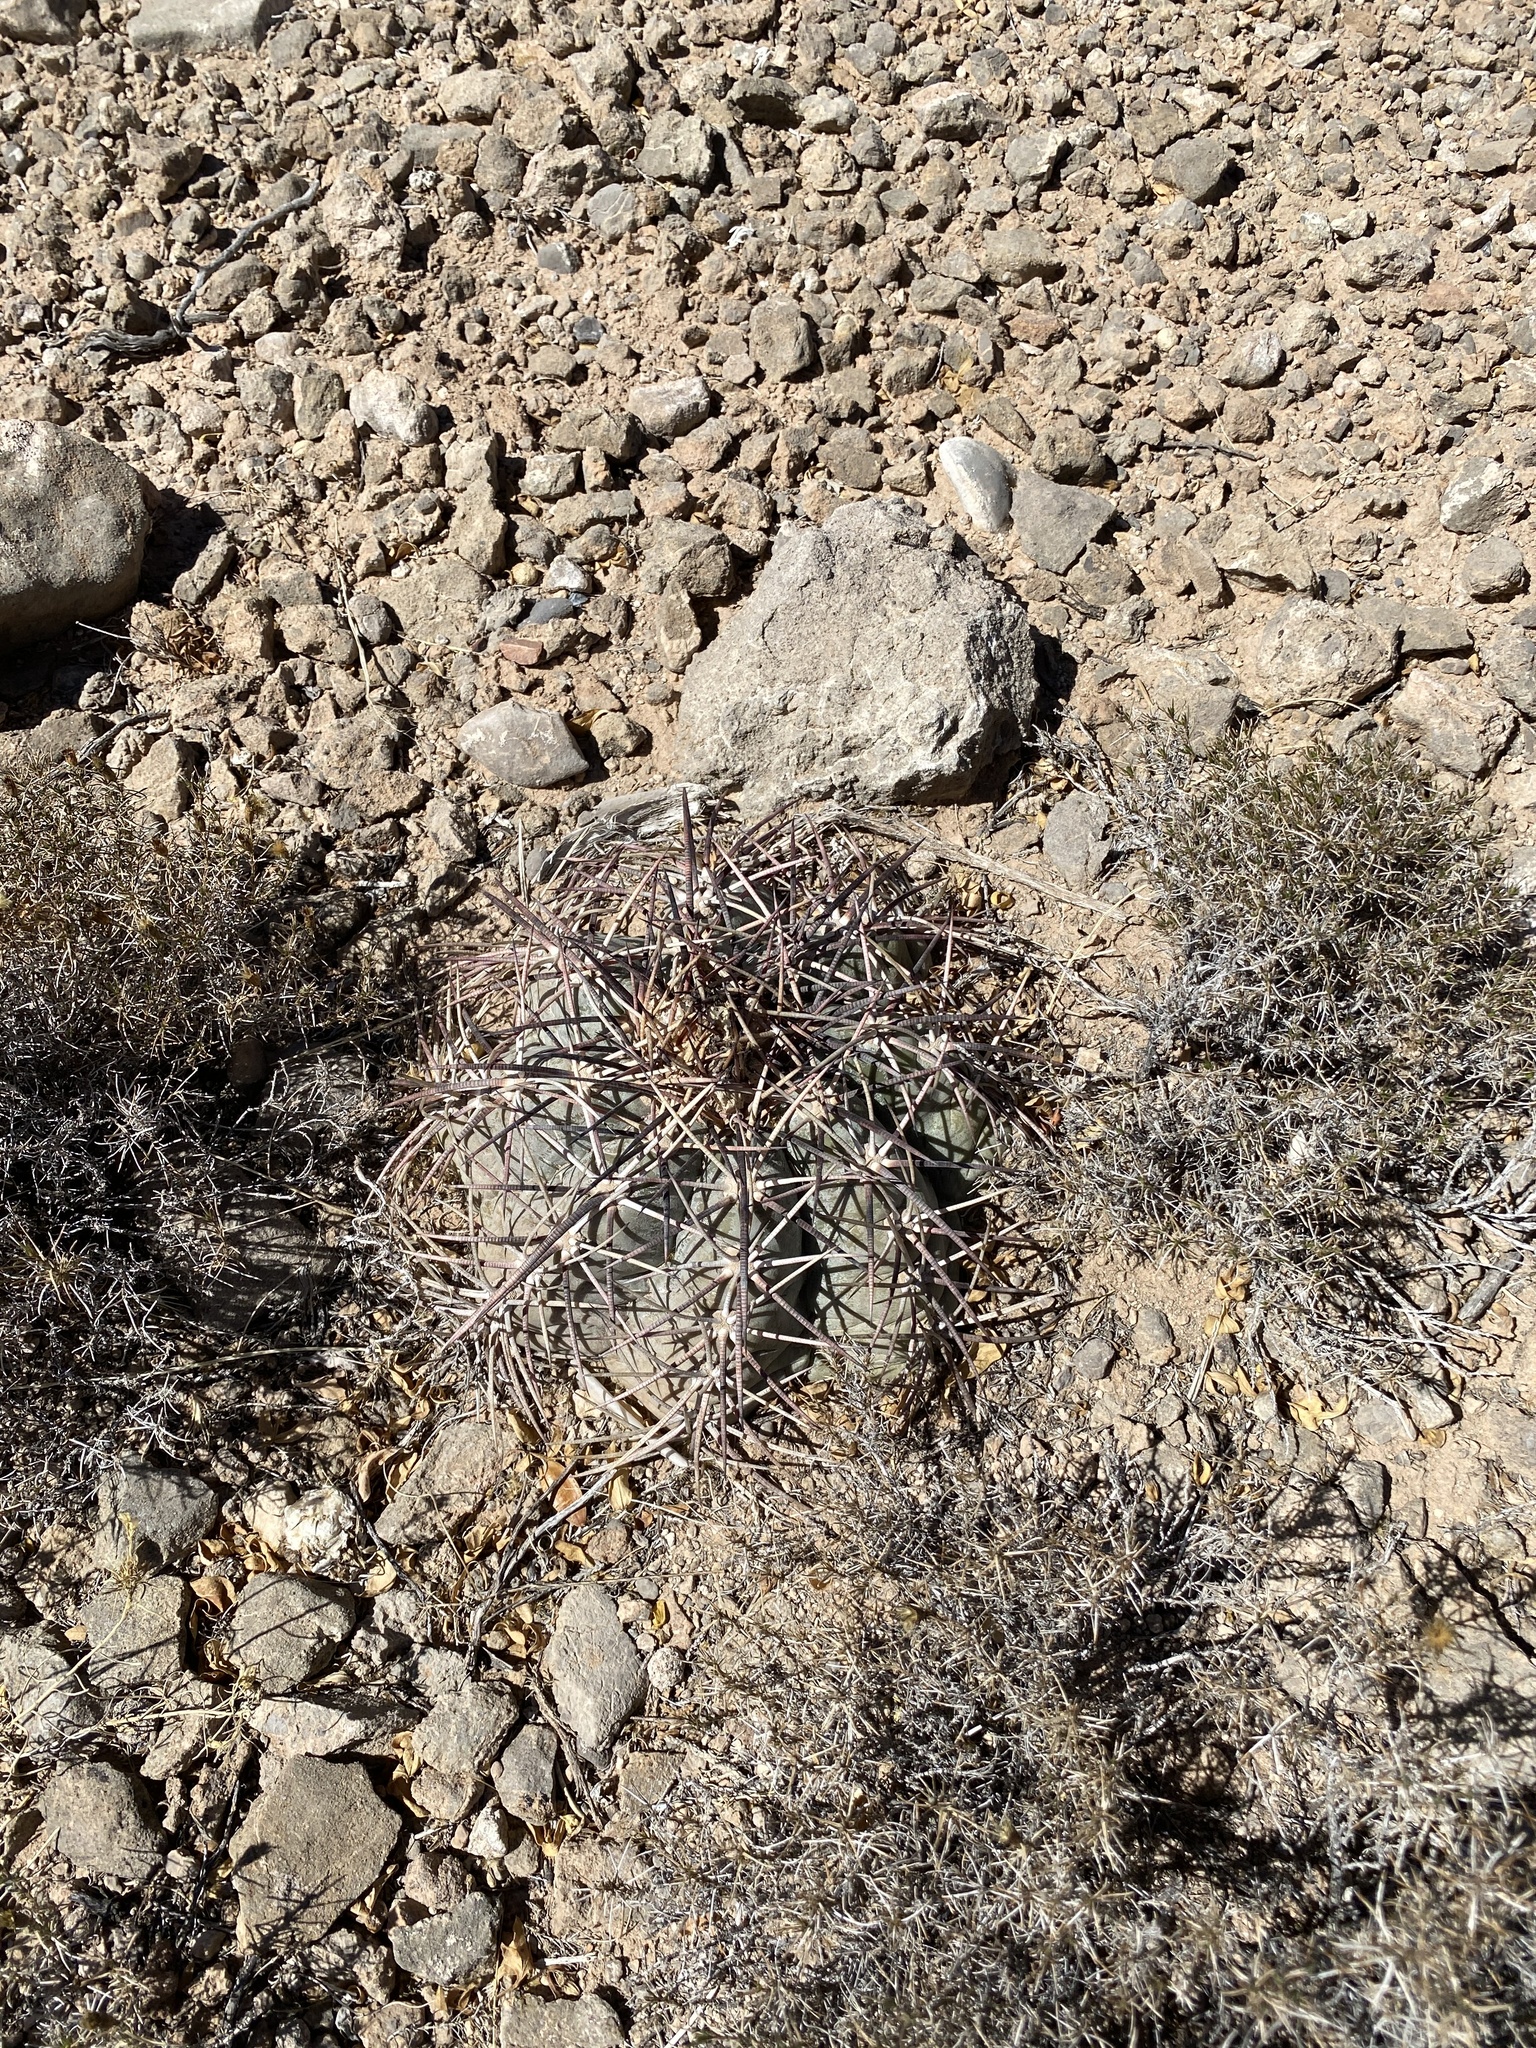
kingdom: Plantae
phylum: Tracheophyta
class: Magnoliopsida
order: Caryophyllales
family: Cactaceae
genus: Echinocactus
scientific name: Echinocactus horizonthalonius
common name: Devilshead
